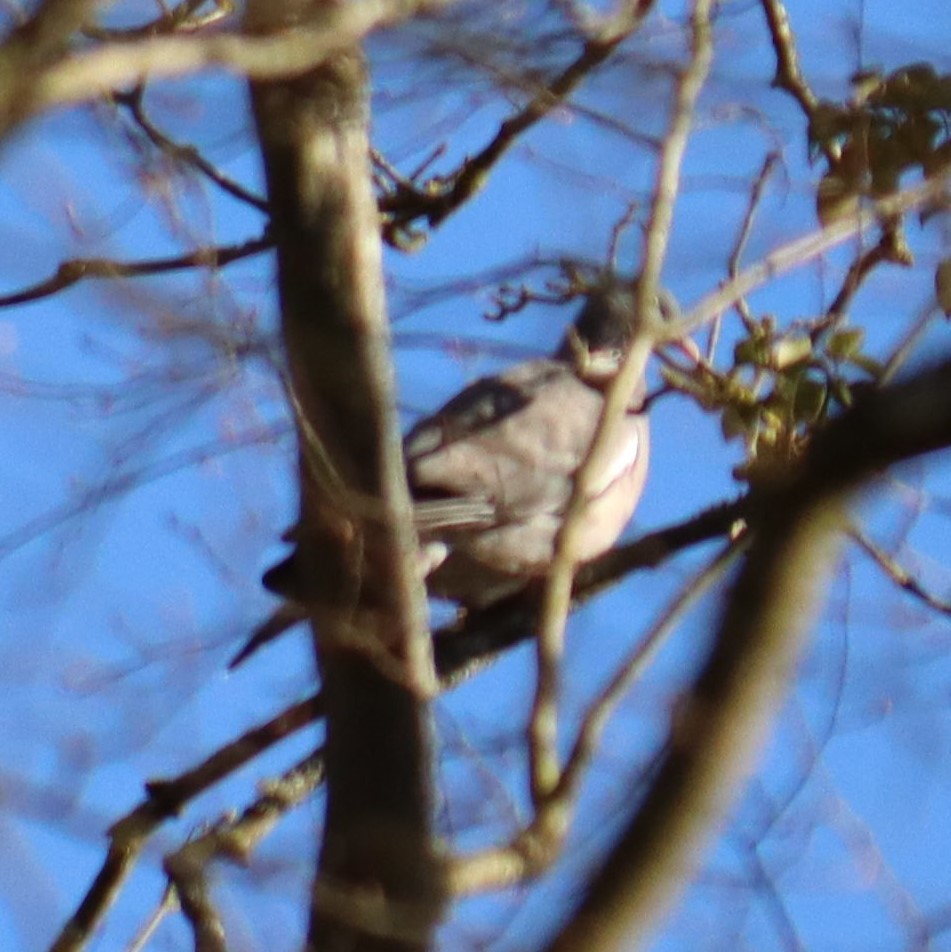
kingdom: Animalia
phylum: Chordata
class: Aves
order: Columbiformes
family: Columbidae
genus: Columba
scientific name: Columba palumbus
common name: Common wood pigeon
